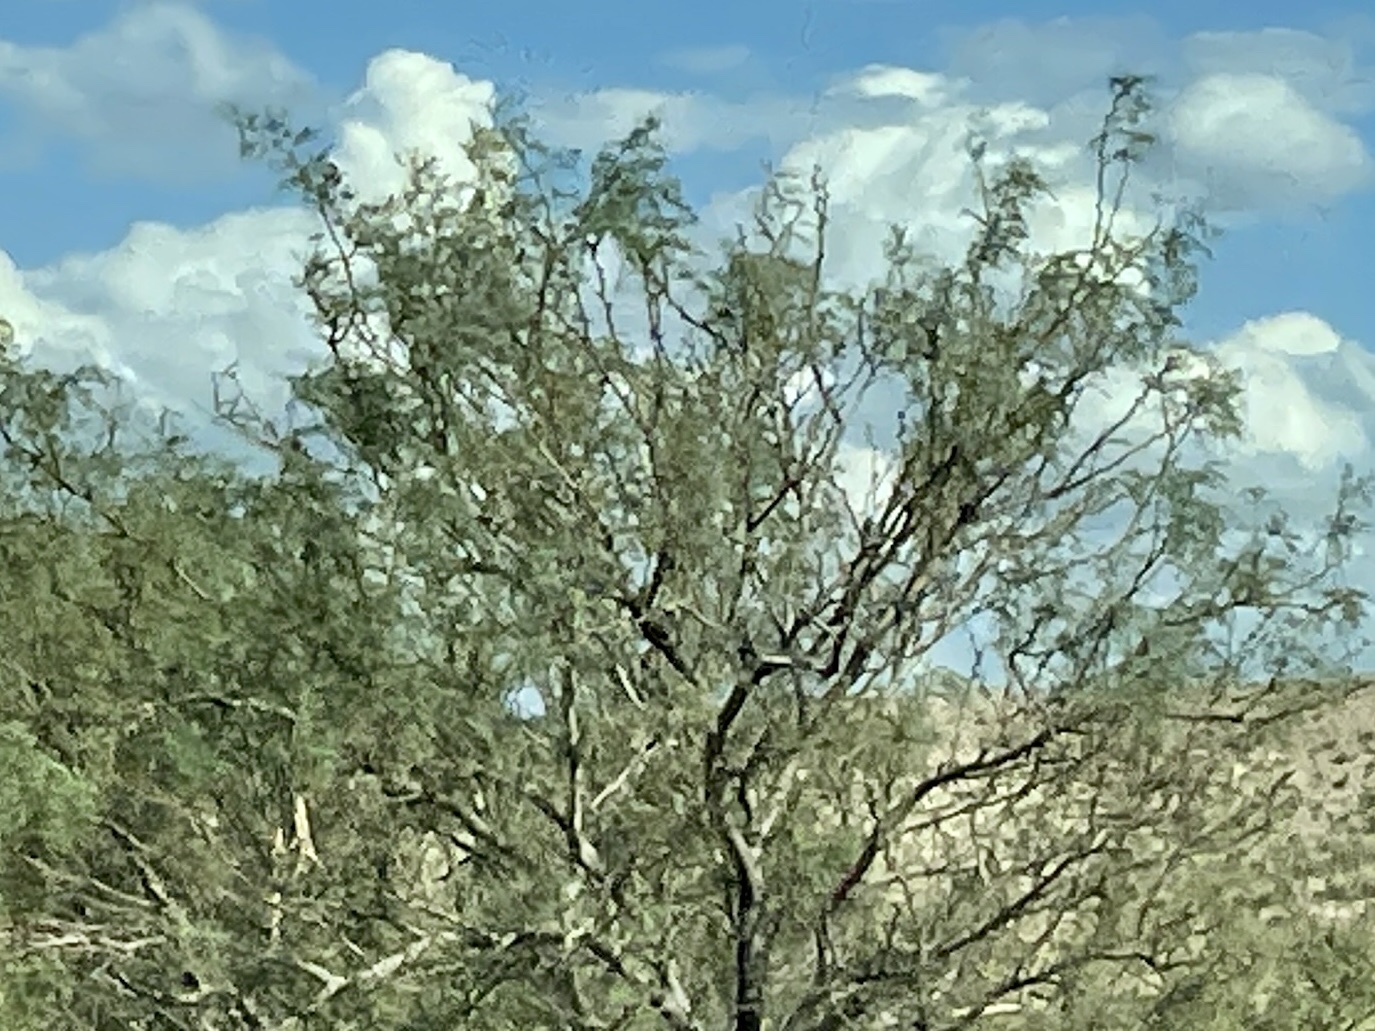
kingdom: Plantae
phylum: Tracheophyta
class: Magnoliopsida
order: Fabales
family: Fabaceae
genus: Prosopis
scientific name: Prosopis glandulosa
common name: Honey mesquite
